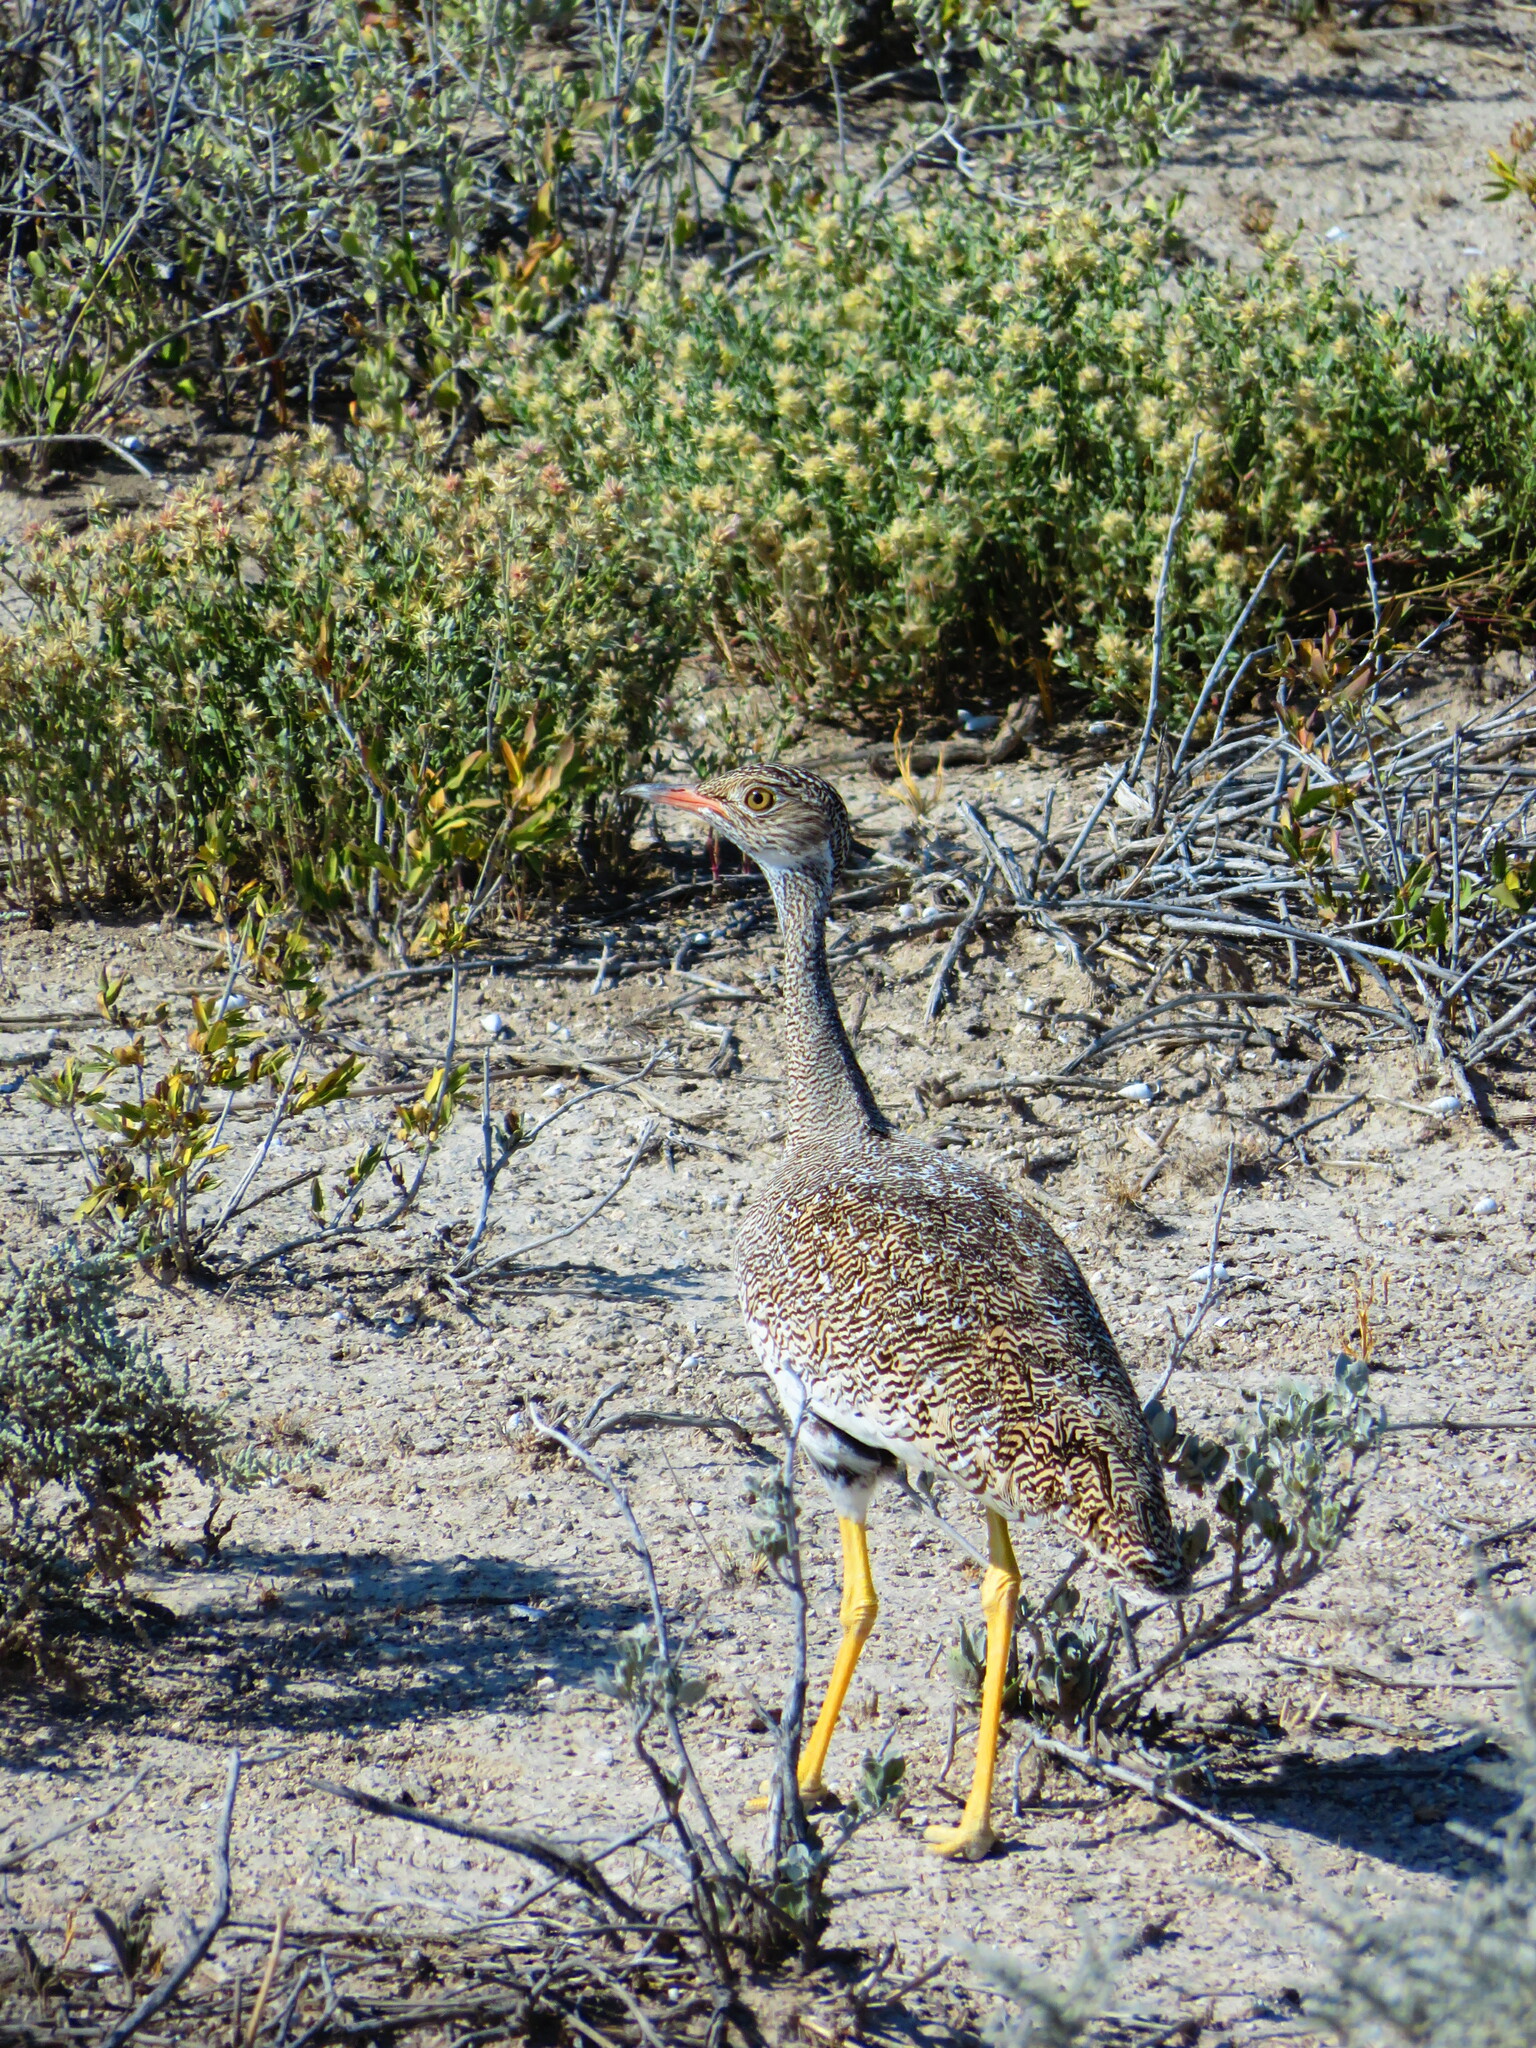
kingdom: Animalia
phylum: Chordata
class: Aves
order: Otidiformes
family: Otididae
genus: Afrotis
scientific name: Afrotis afraoides
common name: Northern black korhaan
